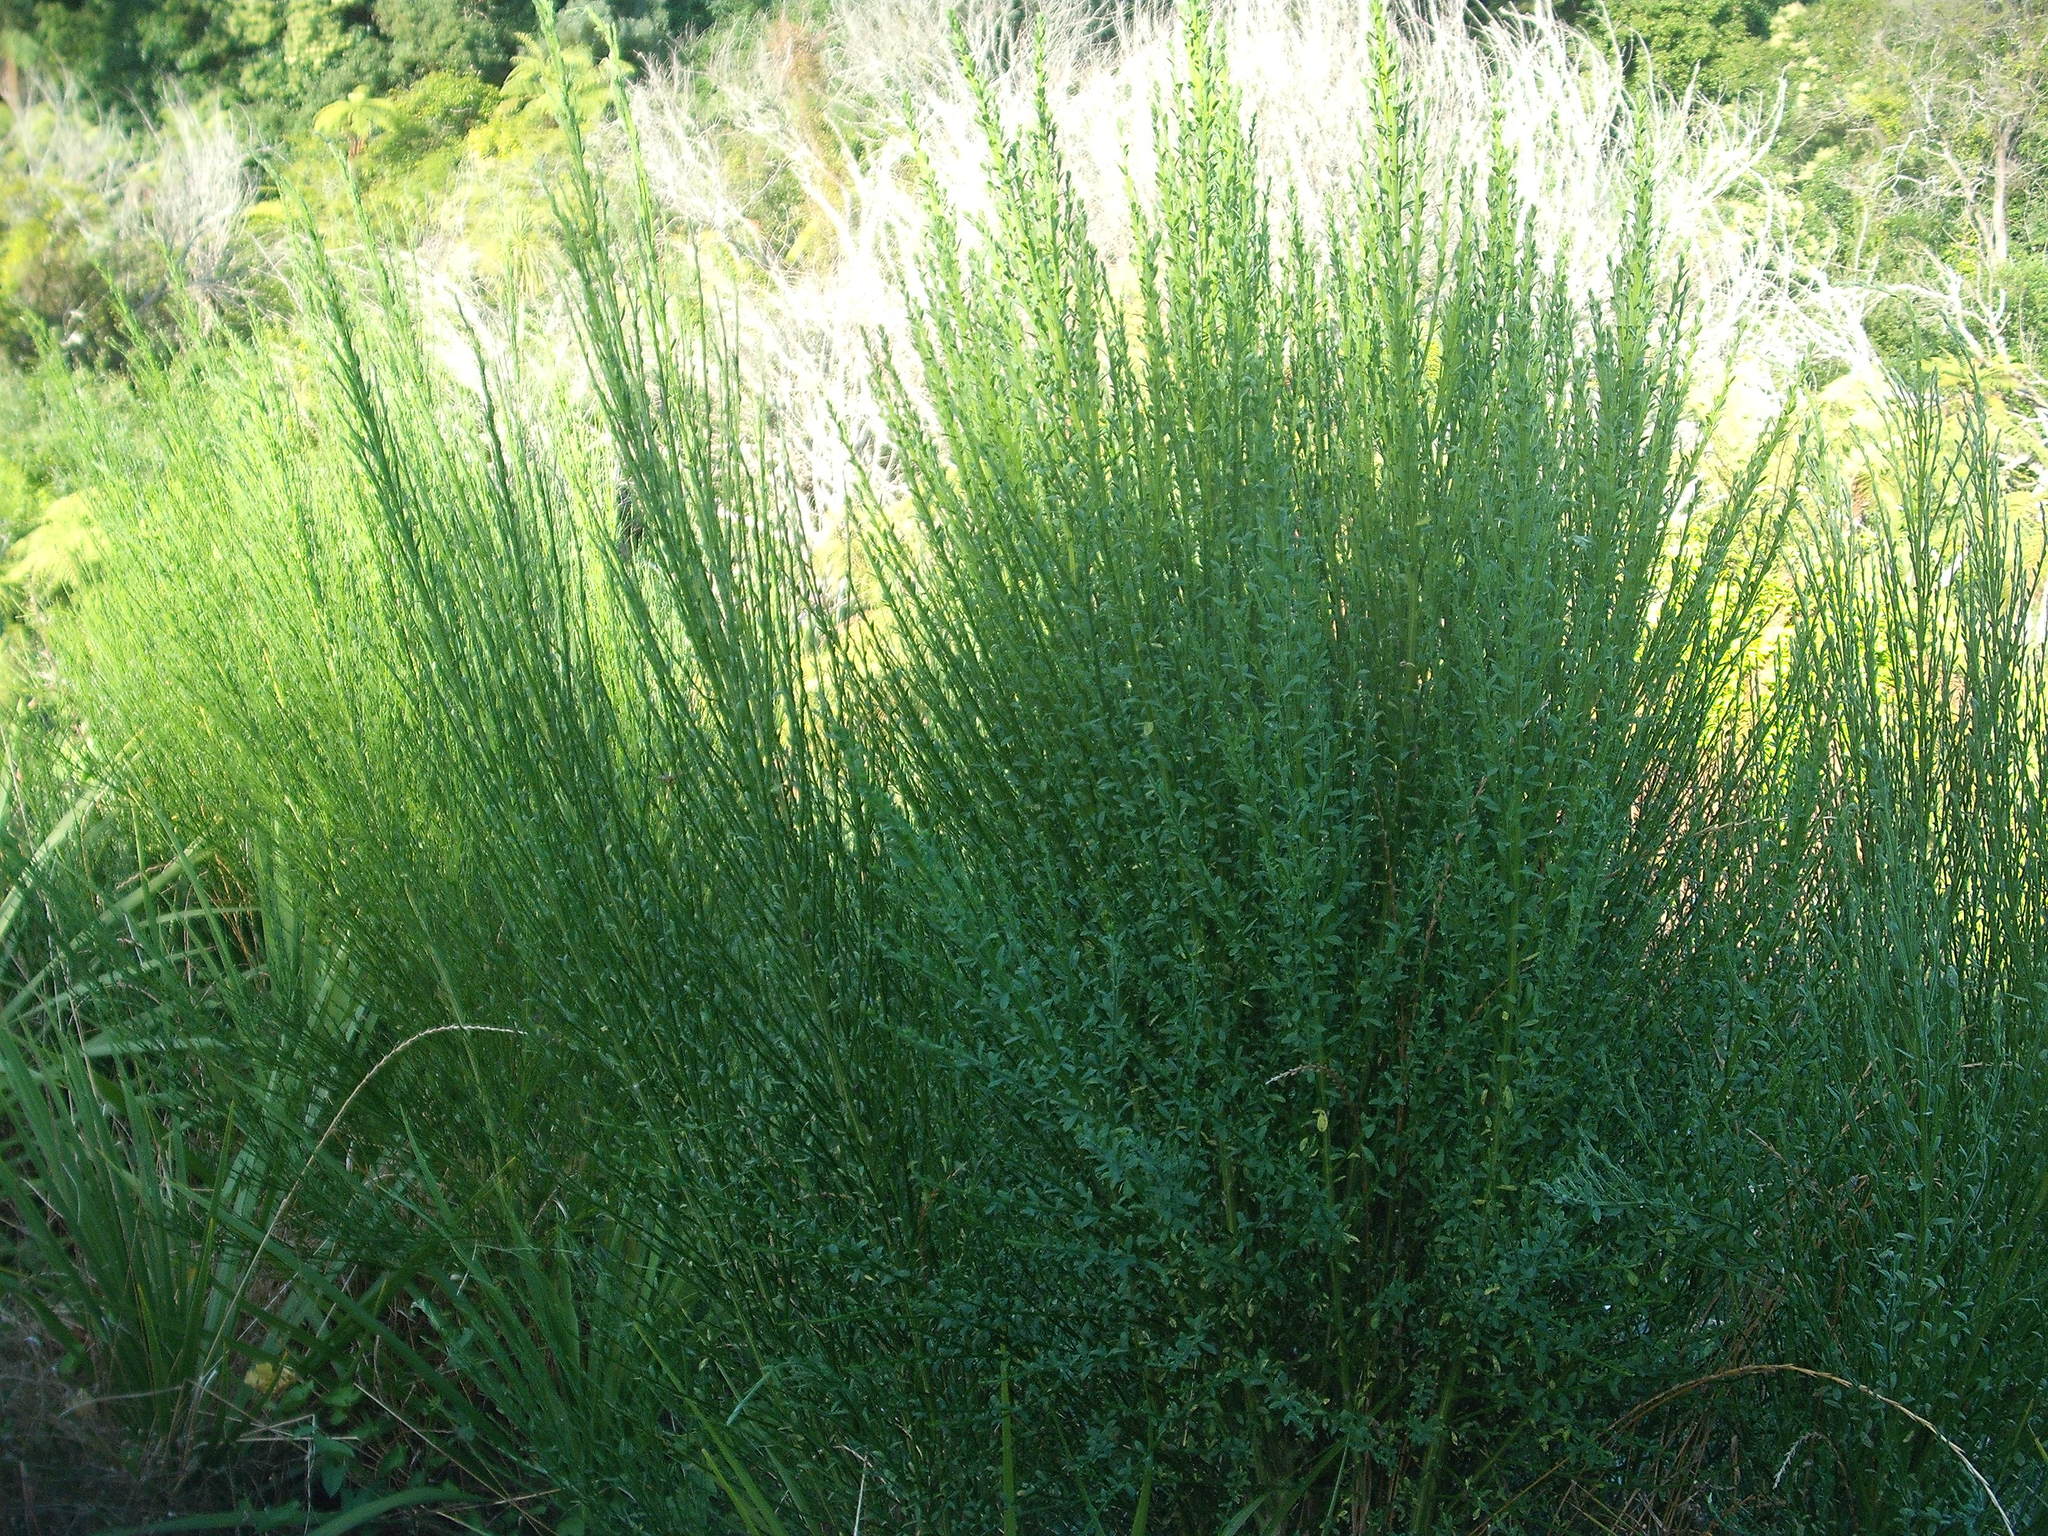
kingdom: Plantae
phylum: Tracheophyta
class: Magnoliopsida
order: Fabales
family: Fabaceae
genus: Cytisus
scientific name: Cytisus scoparius
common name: Scotch broom
